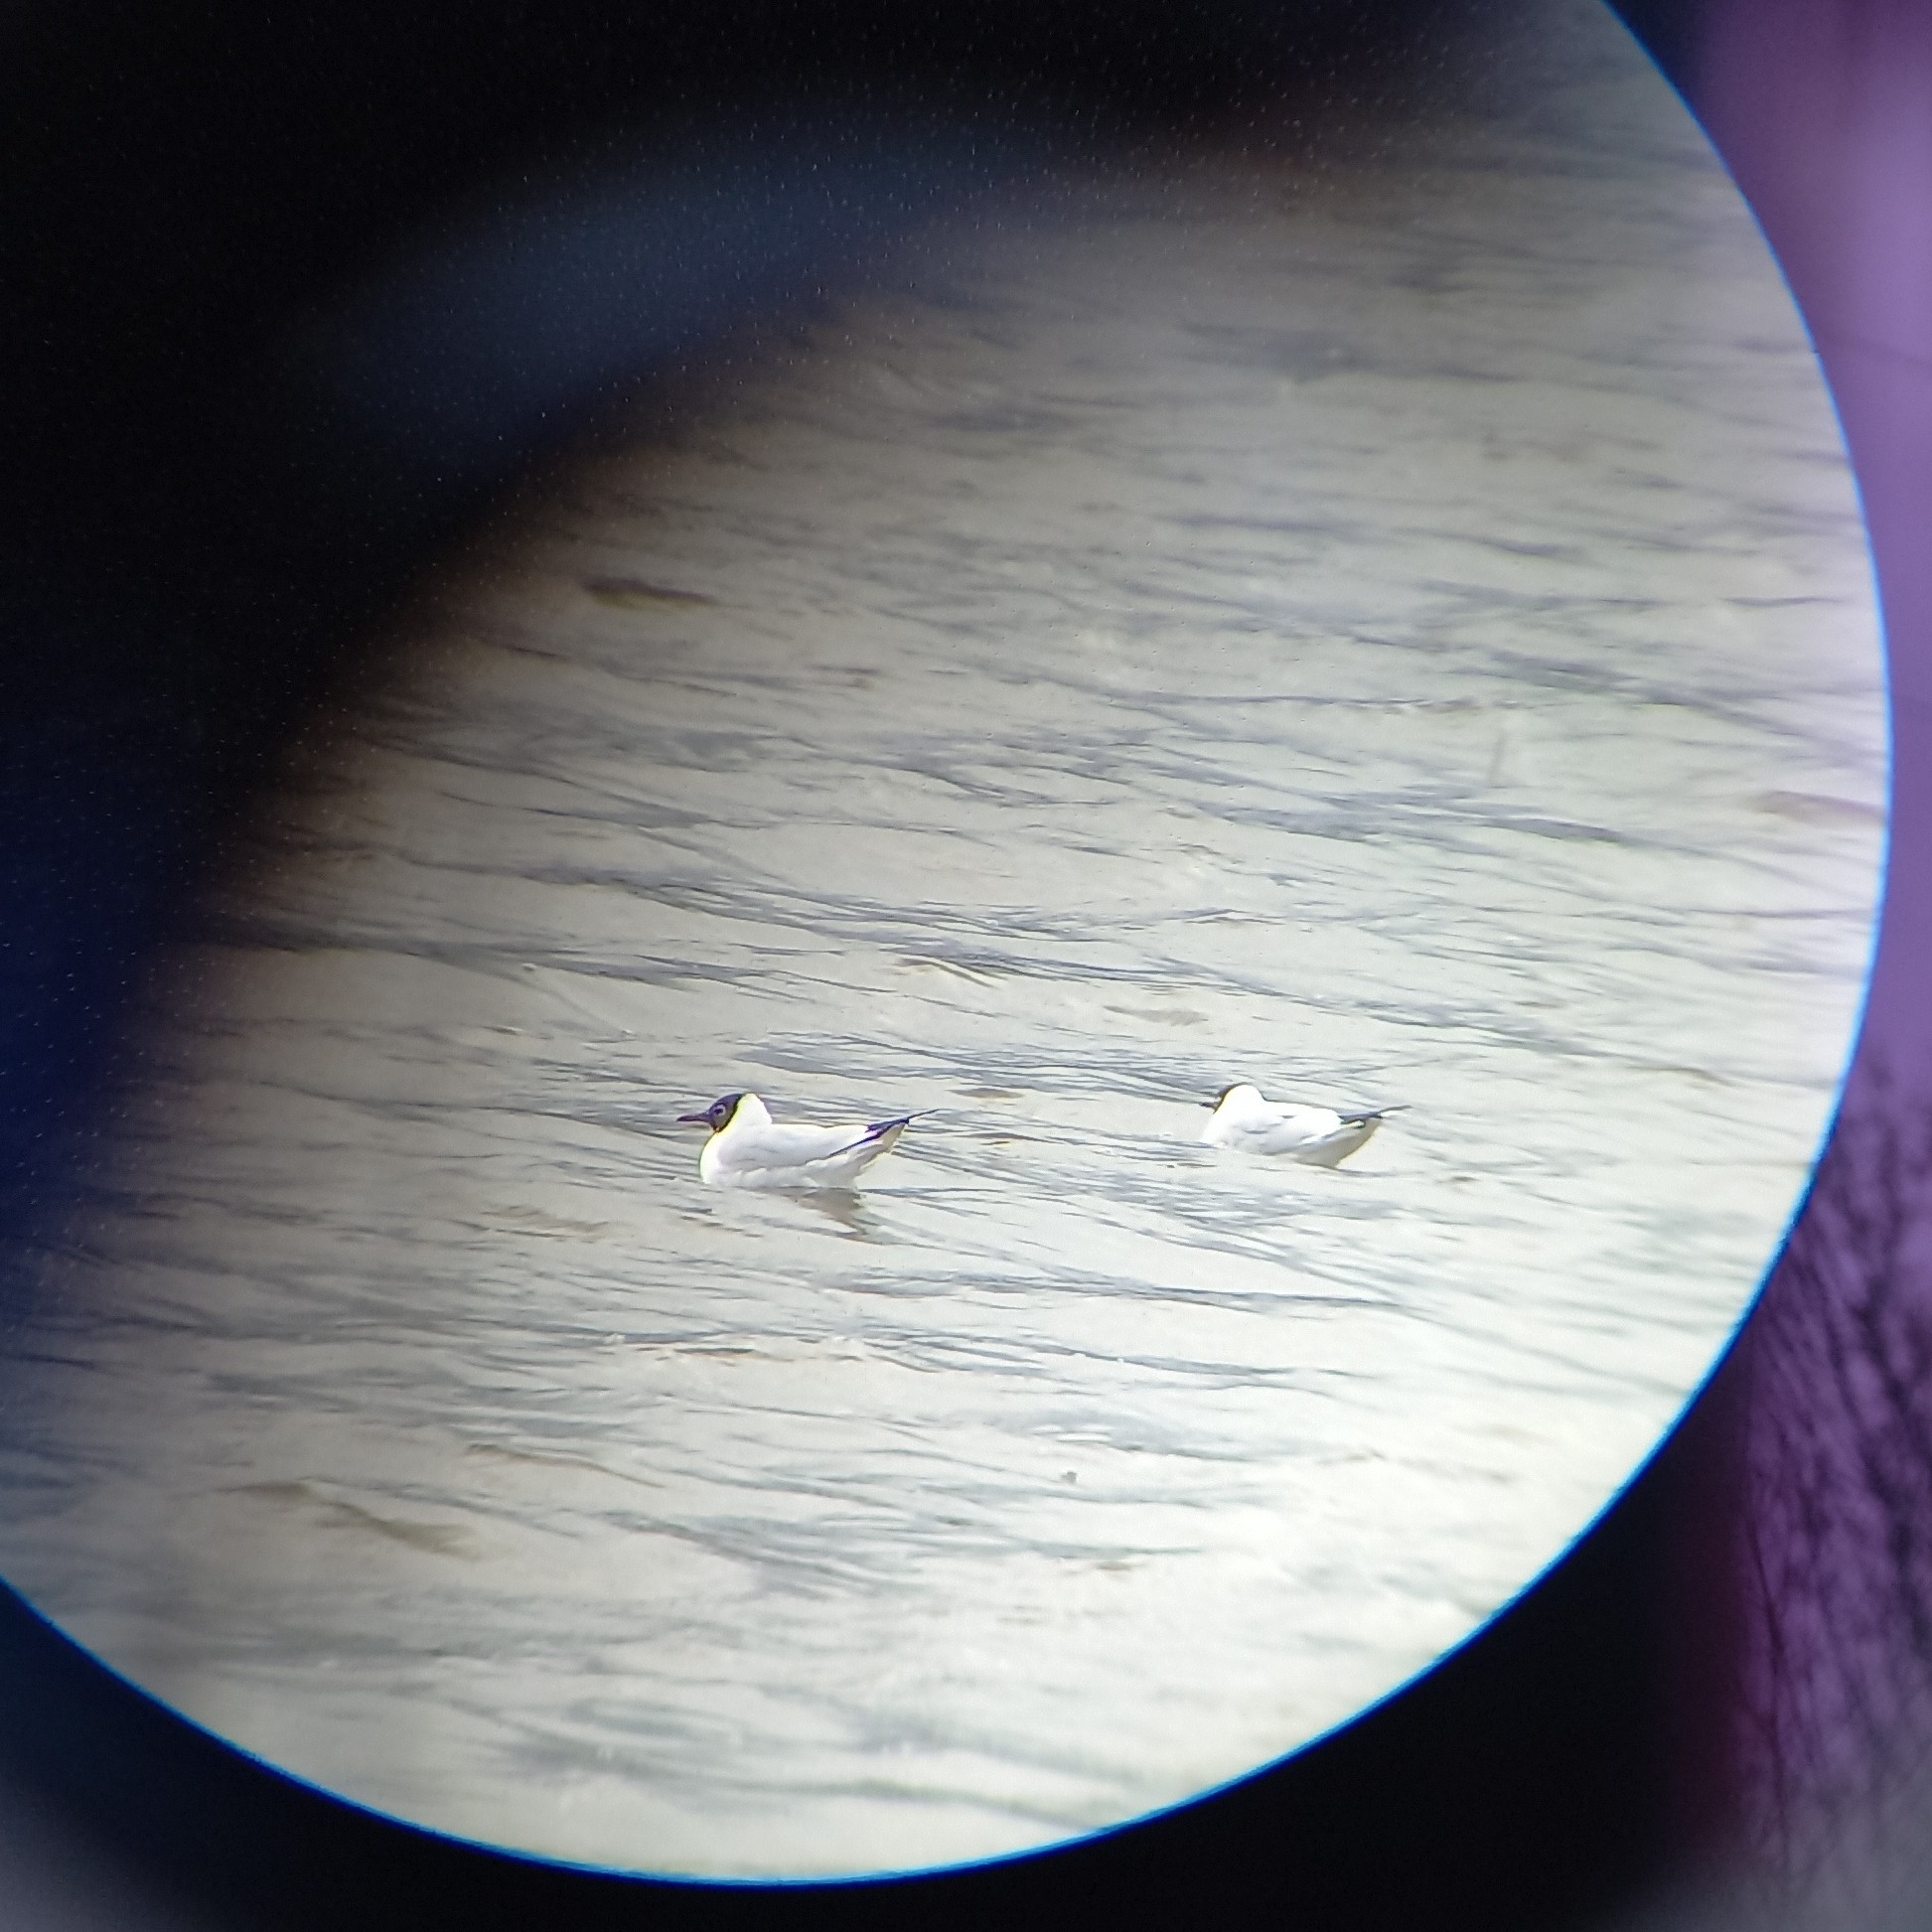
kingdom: Animalia
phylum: Chordata
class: Aves
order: Charadriiformes
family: Laridae
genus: Chroicocephalus
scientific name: Chroicocephalus ridibundus
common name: Black-headed gull
